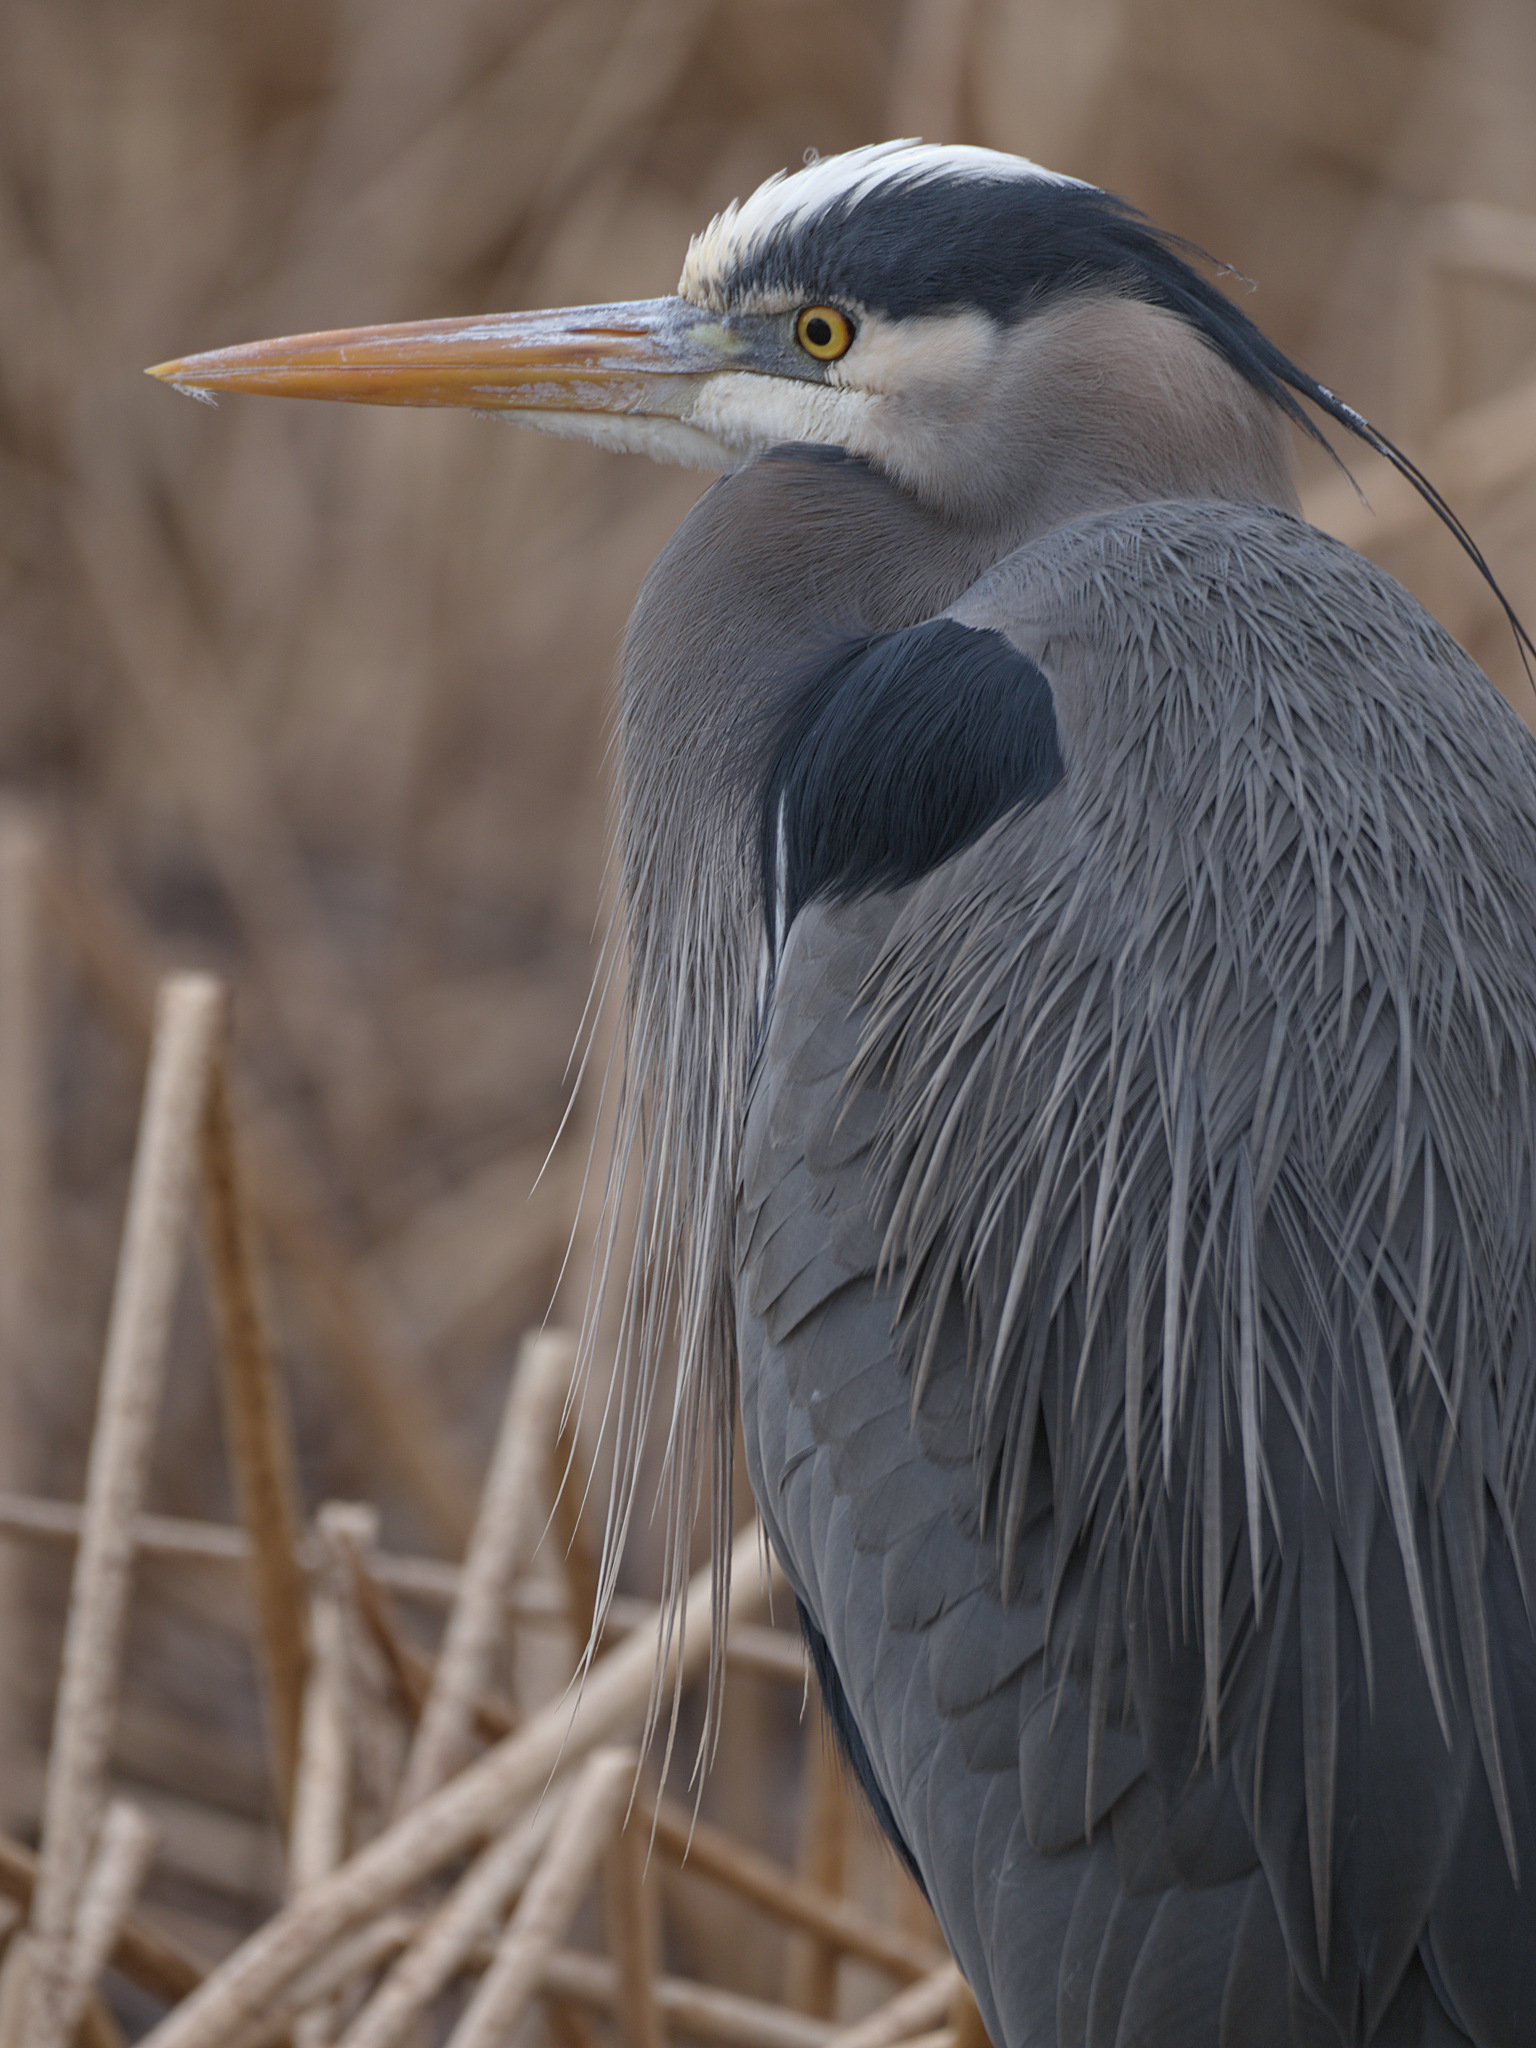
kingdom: Animalia
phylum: Chordata
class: Aves
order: Pelecaniformes
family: Ardeidae
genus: Ardea
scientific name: Ardea herodias
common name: Great blue heron
